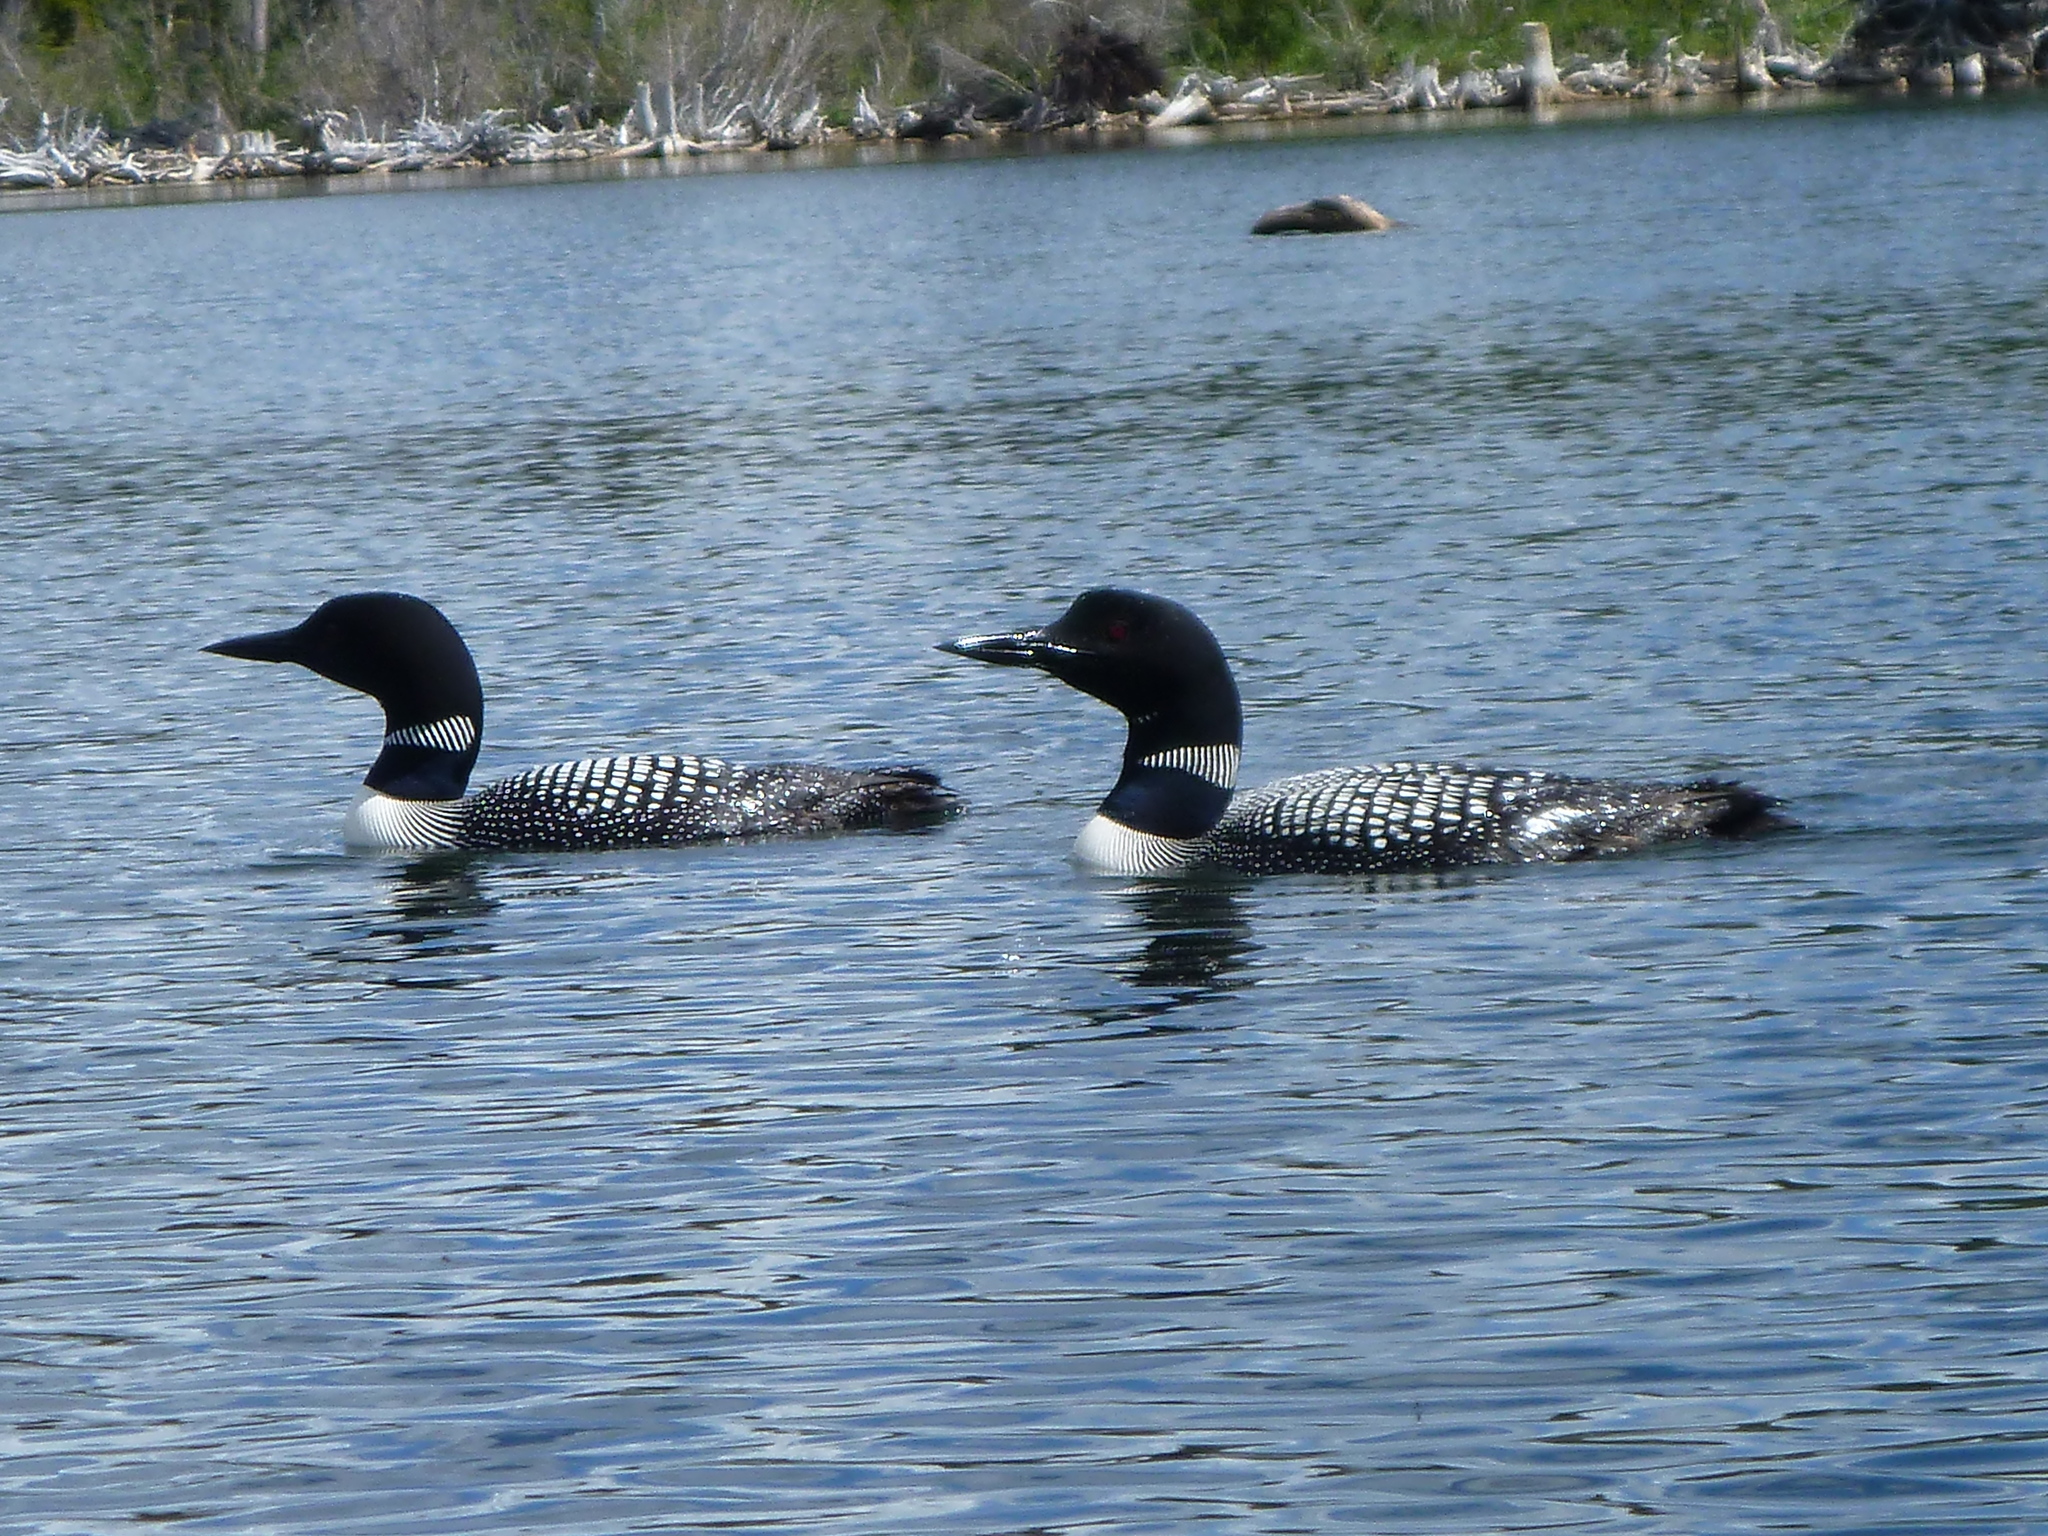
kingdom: Animalia
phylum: Chordata
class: Aves
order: Gaviiformes
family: Gaviidae
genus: Gavia
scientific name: Gavia immer
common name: Common loon
